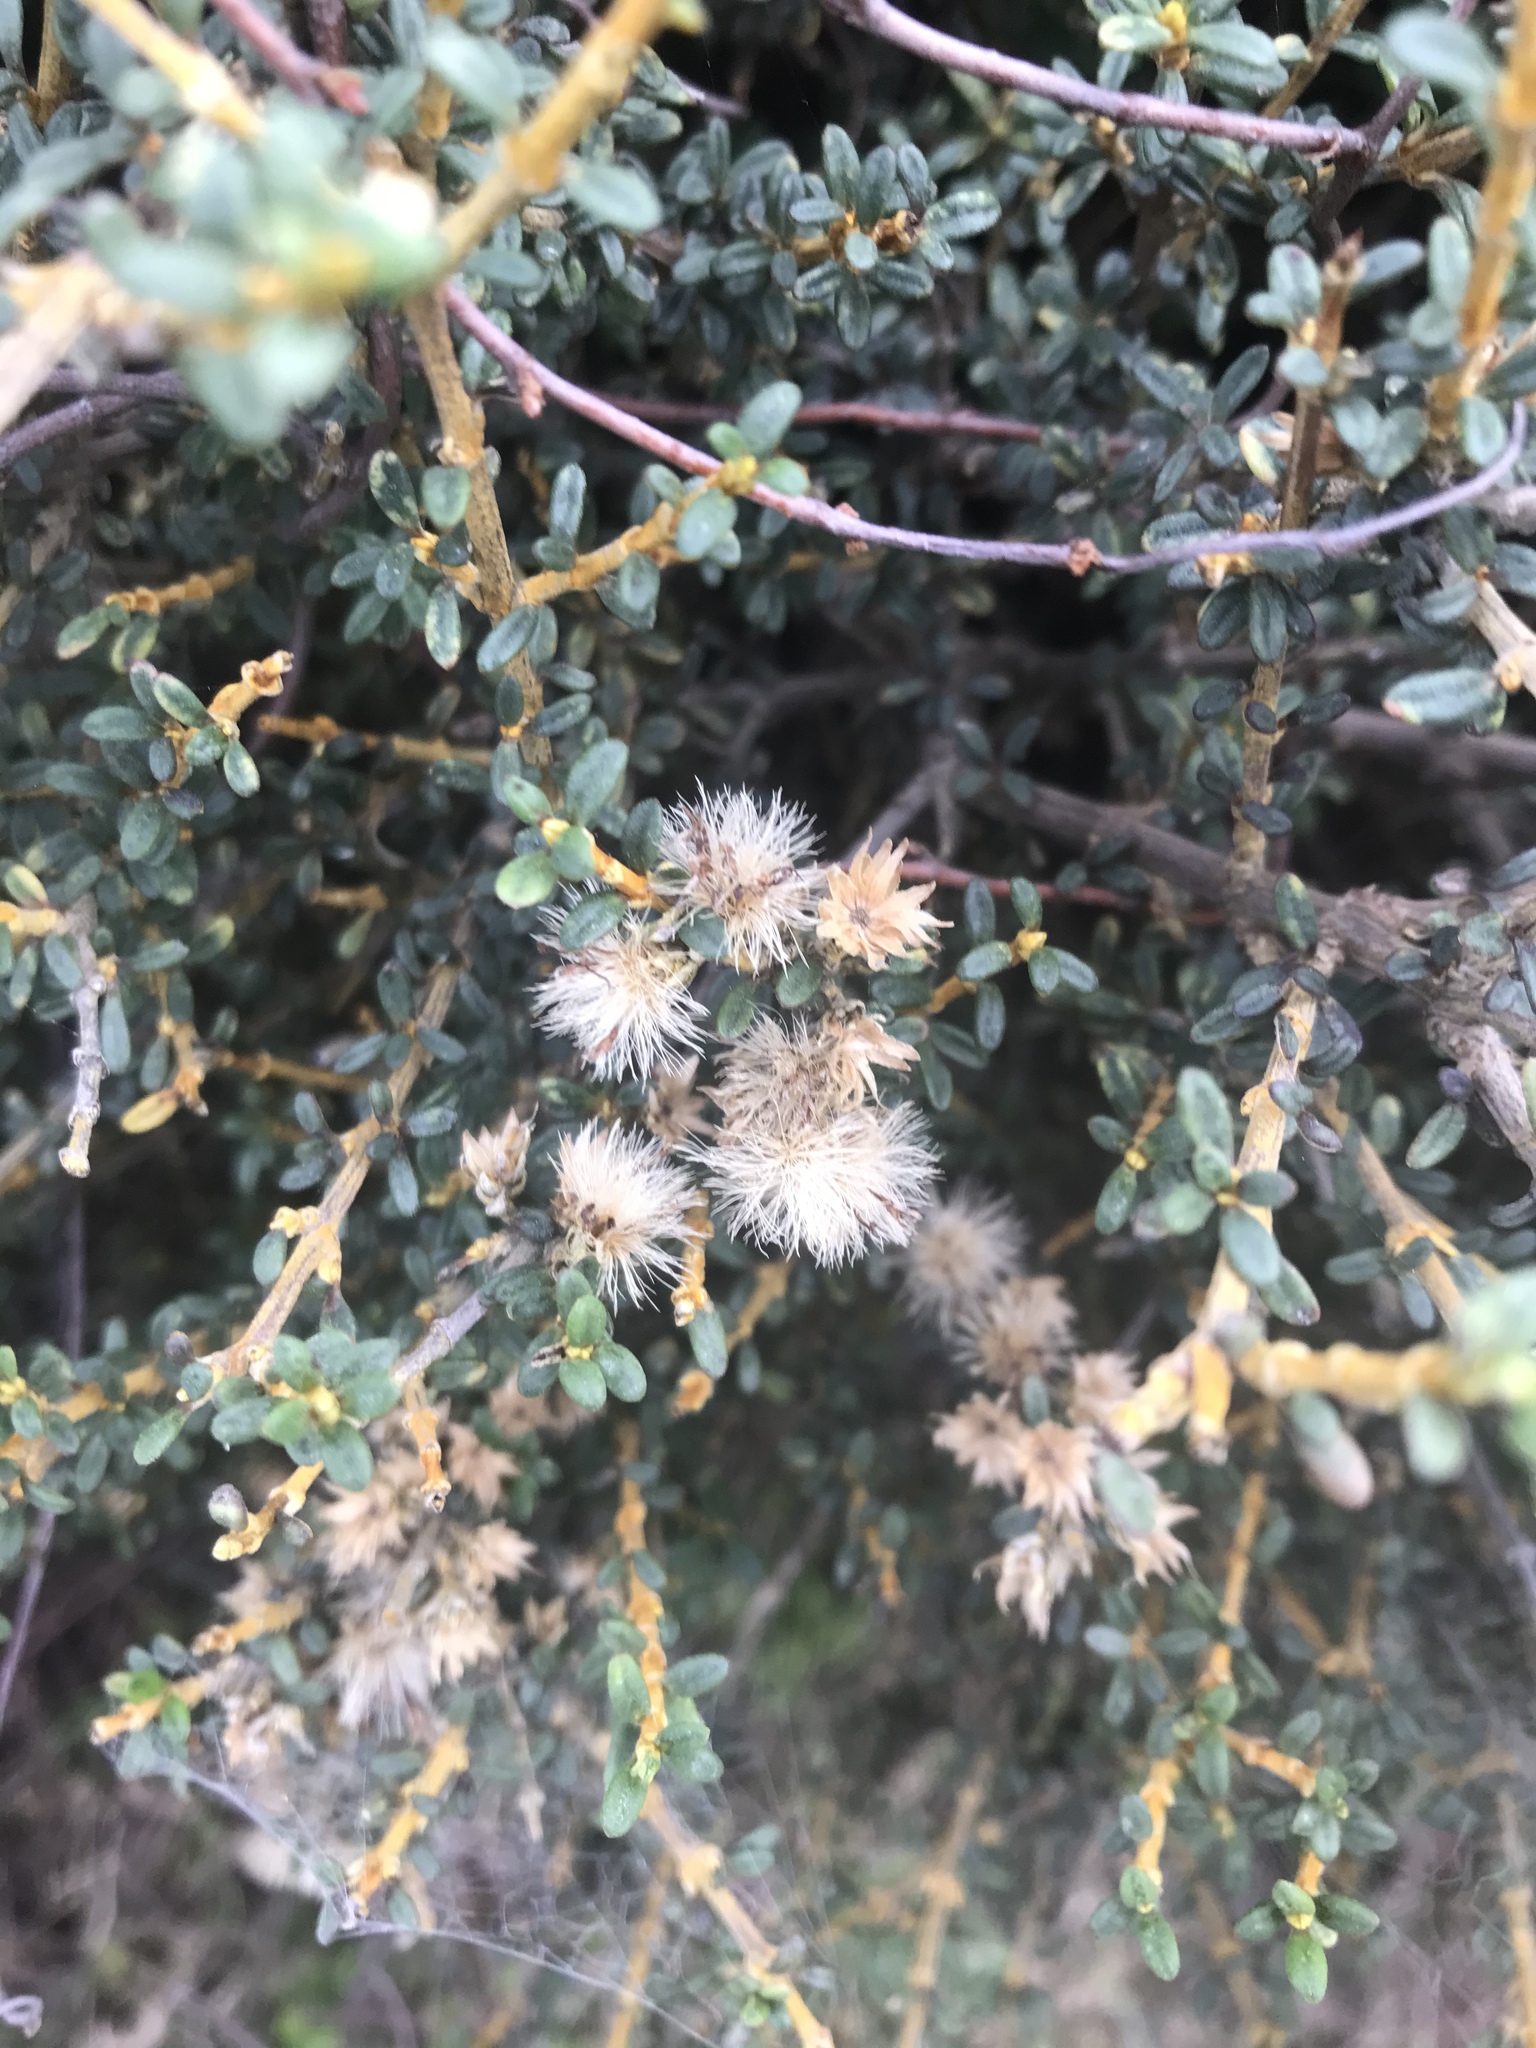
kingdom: Plantae
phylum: Tracheophyta
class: Magnoliopsida
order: Asterales
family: Asteraceae
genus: Olearia
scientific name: Olearia solandri
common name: Coastal daisybush
